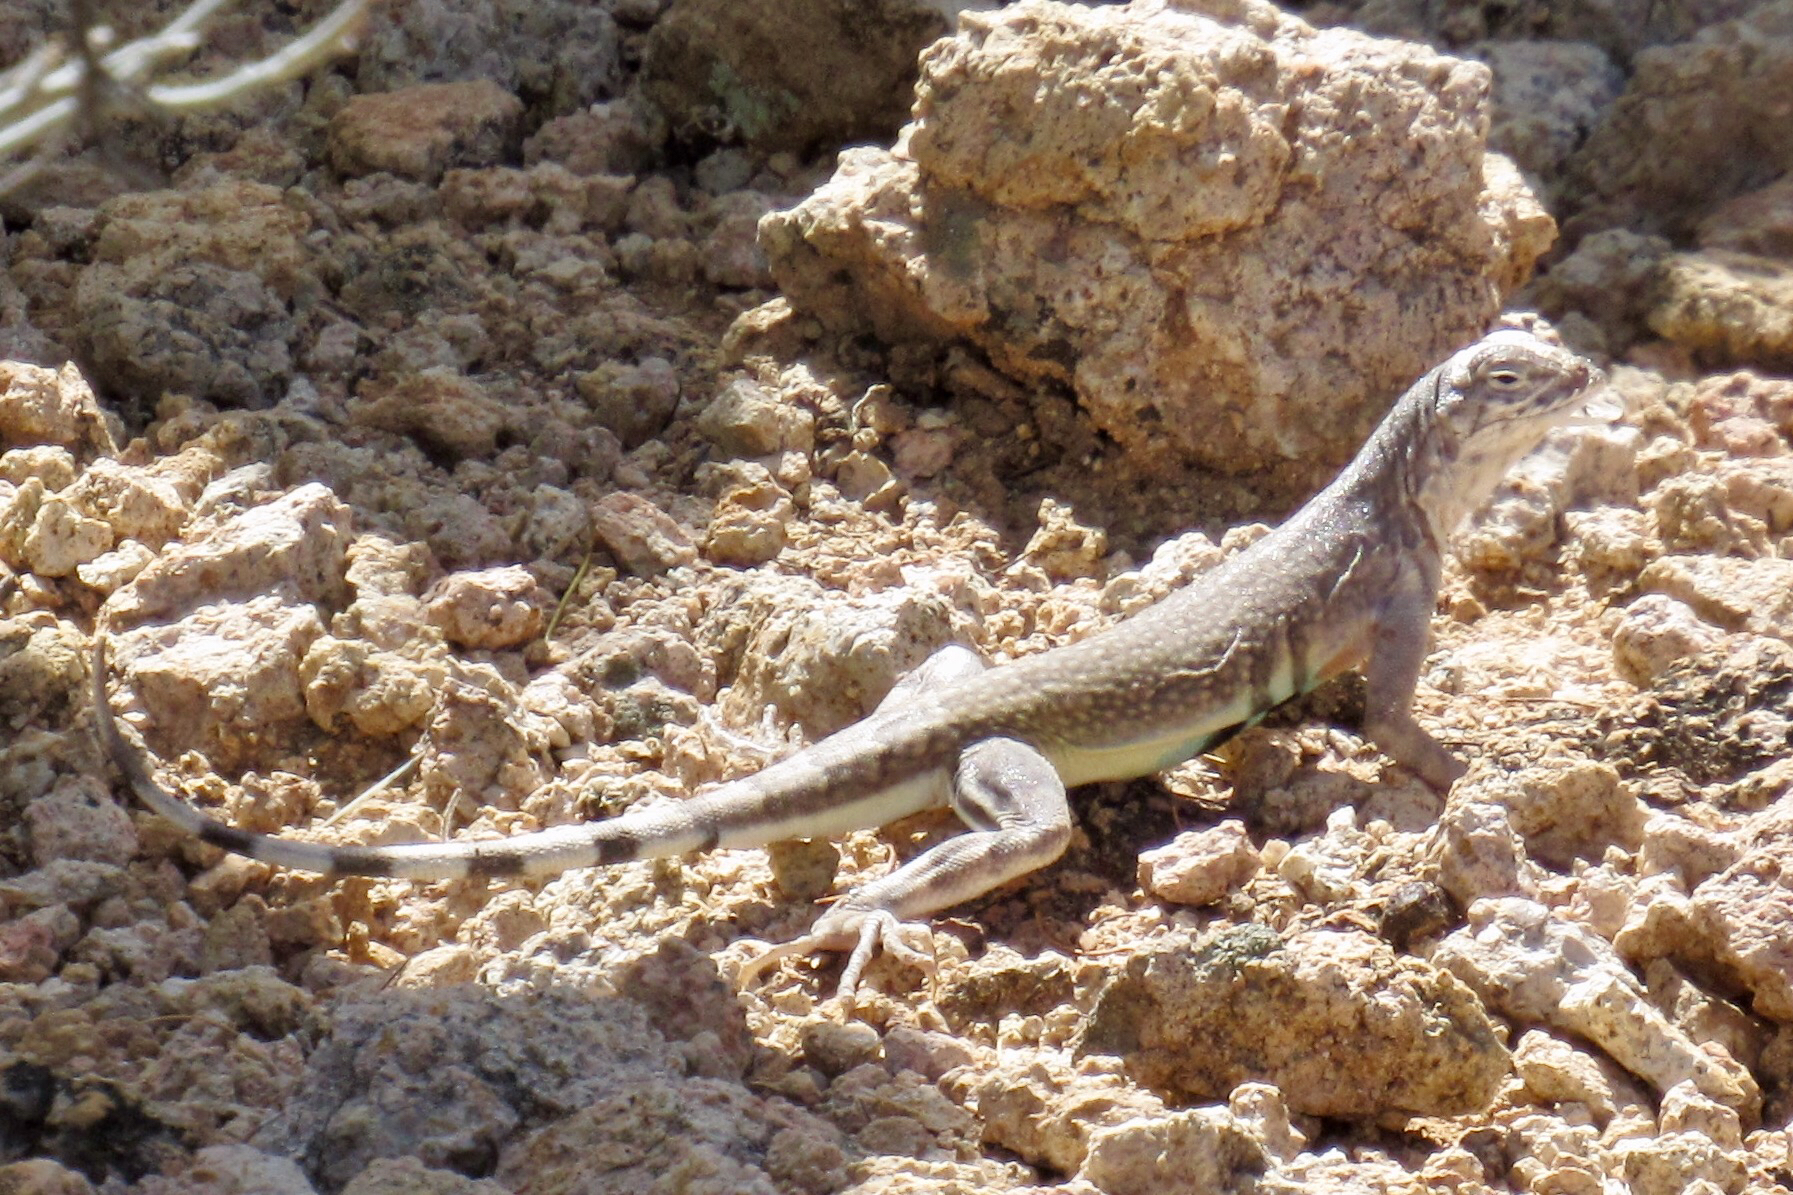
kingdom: Animalia
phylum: Chordata
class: Squamata
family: Phrynosomatidae
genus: Callisaurus
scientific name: Callisaurus draconoides
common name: Zebra-tailed lizard
